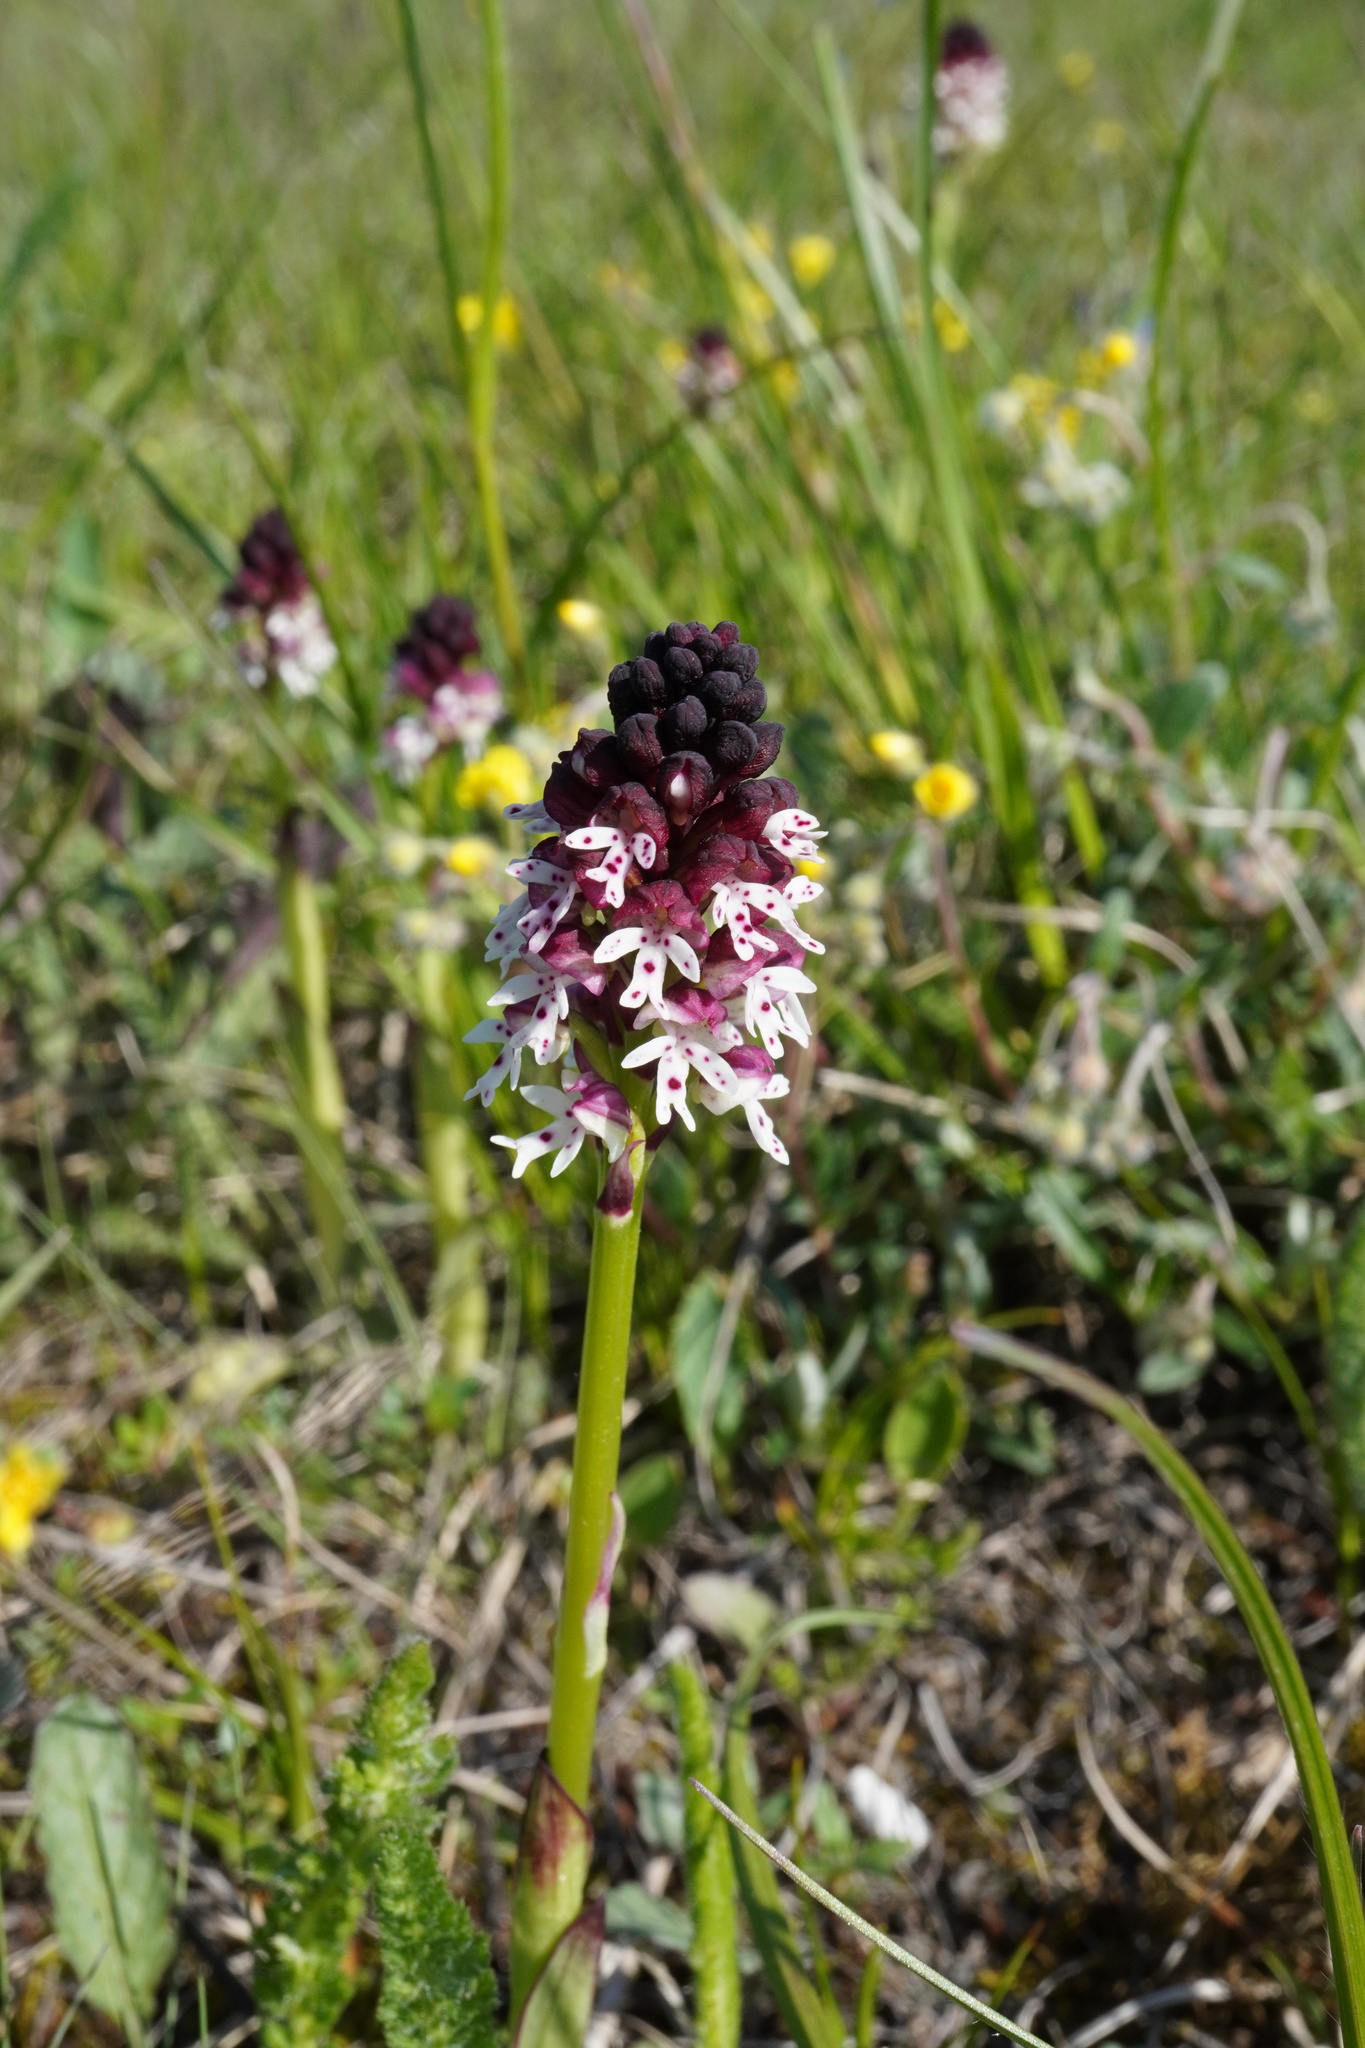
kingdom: Plantae
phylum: Tracheophyta
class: Liliopsida
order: Asparagales
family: Orchidaceae
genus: Neotinea
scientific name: Neotinea ustulata
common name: Burnt orchid
